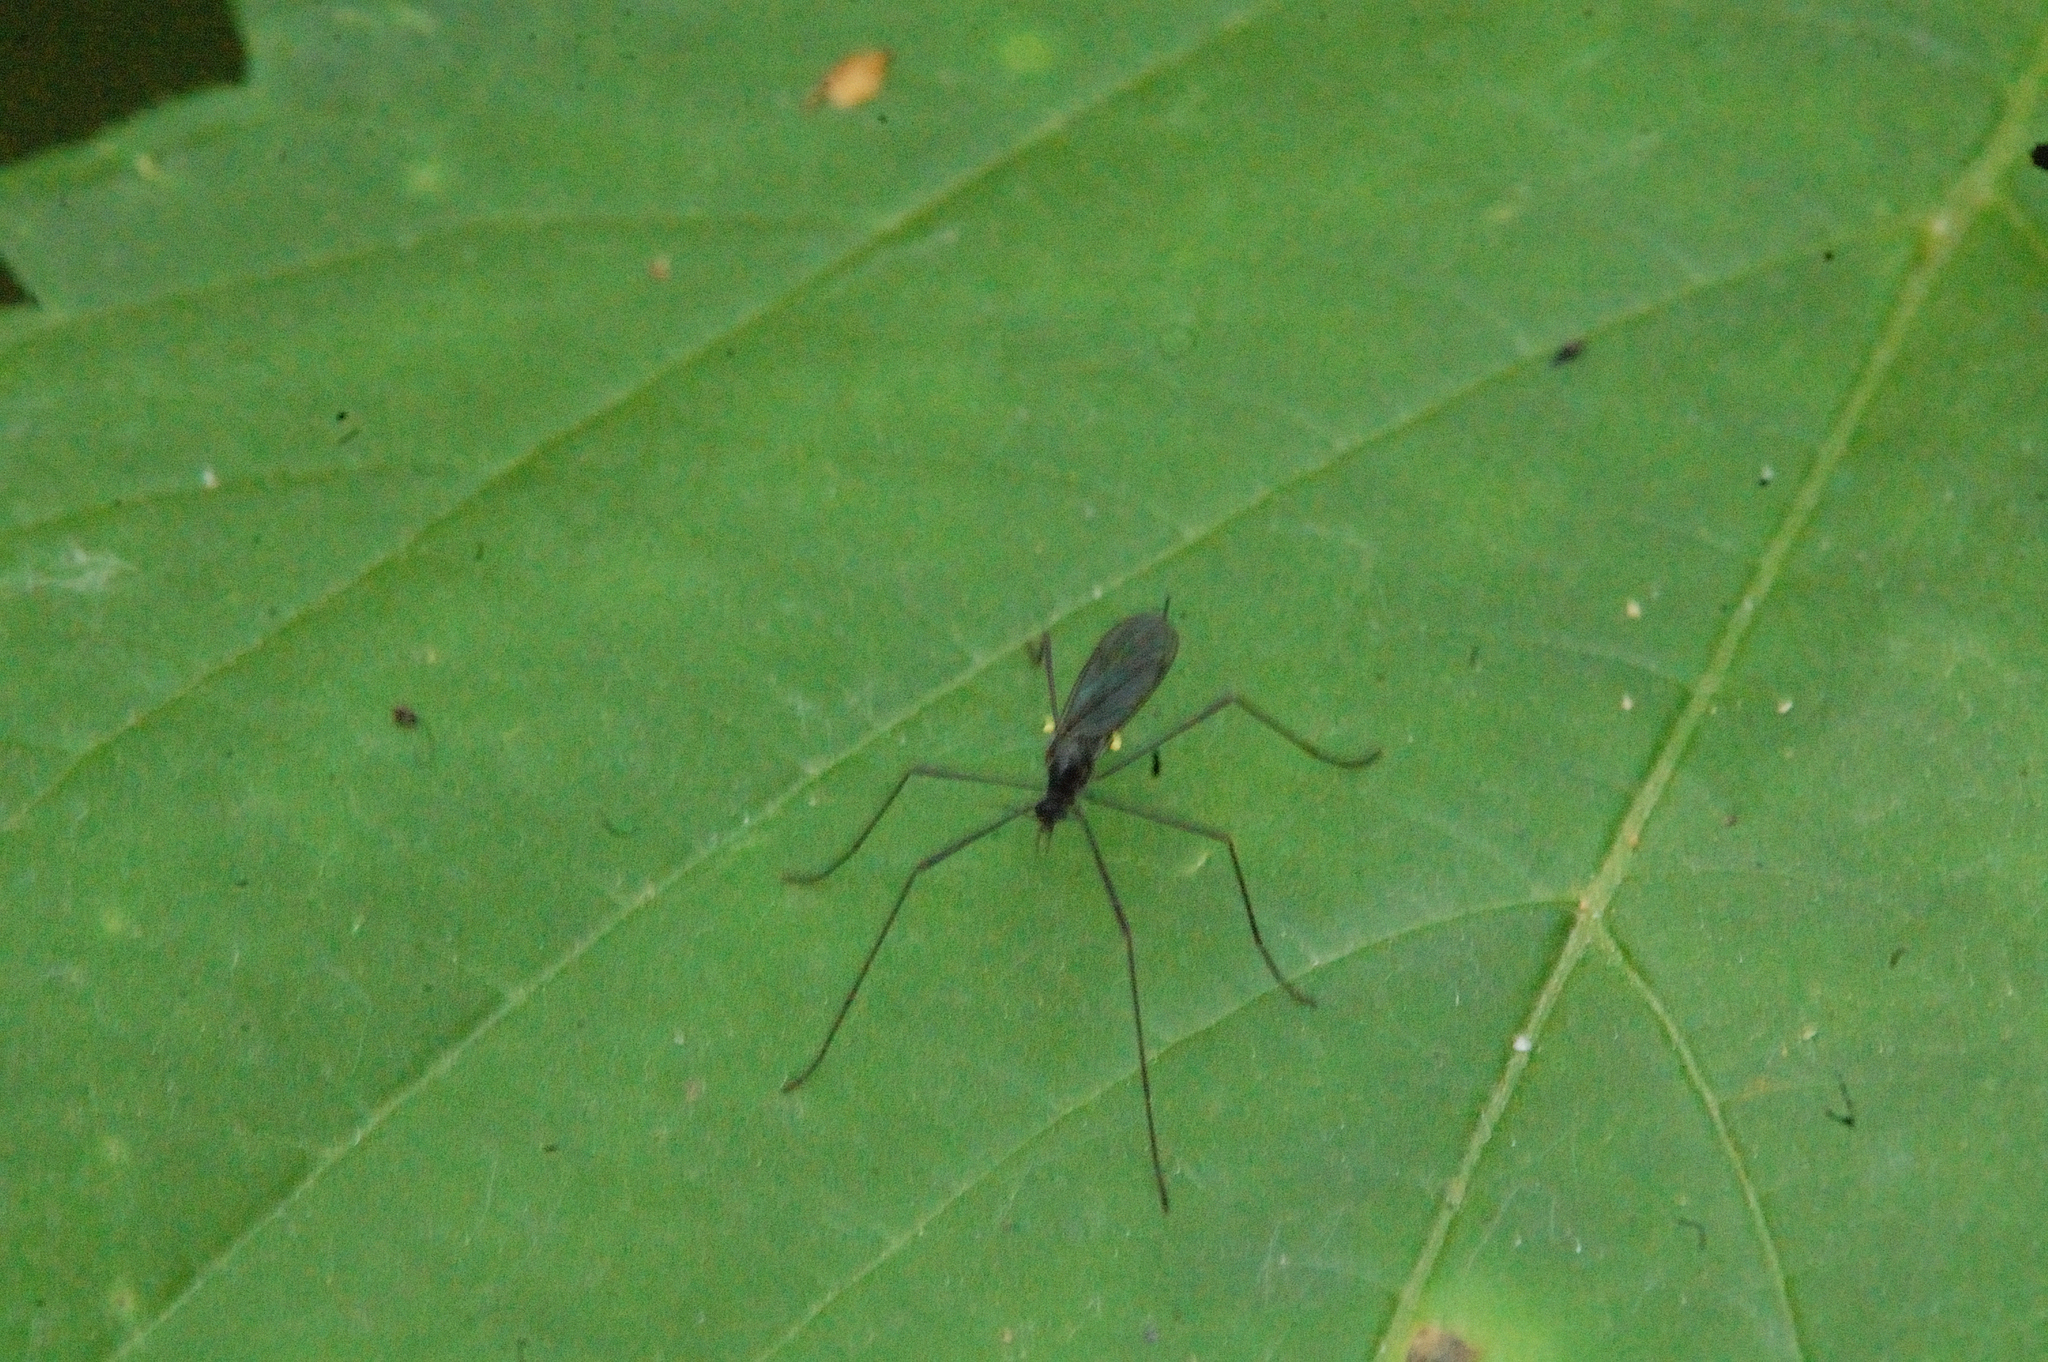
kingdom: Animalia
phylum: Arthropoda
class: Insecta
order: Diptera
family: Limoniidae
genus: Gnophomyia
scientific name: Gnophomyia tristissima
